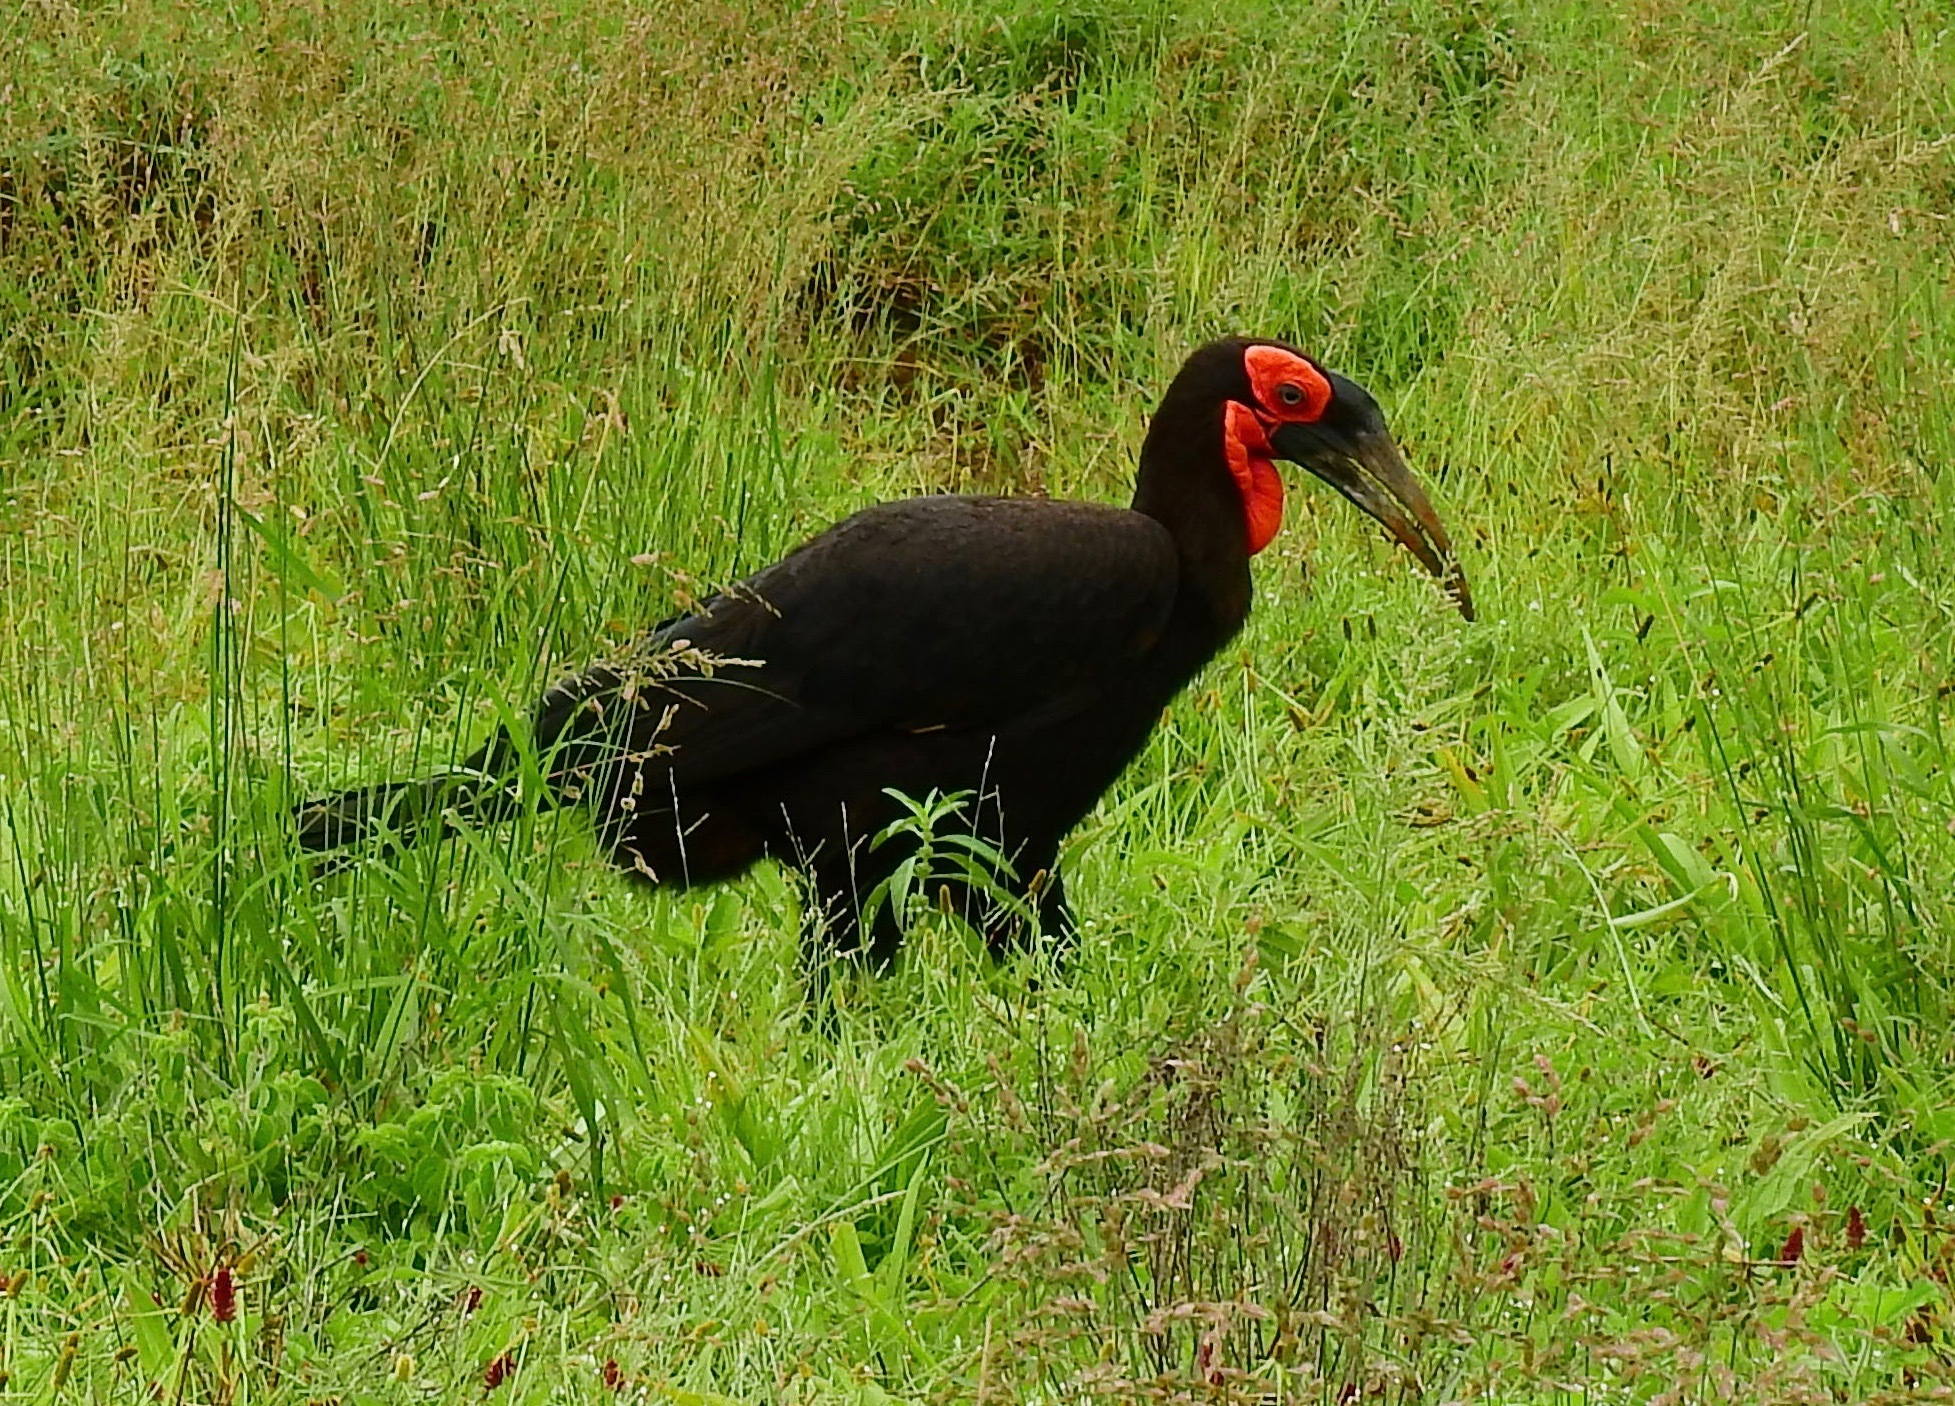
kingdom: Animalia
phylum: Chordata
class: Aves
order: Bucerotiformes
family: Bucorvidae
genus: Bucorvus
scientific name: Bucorvus leadbeateri
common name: Southern ground-hornbill
